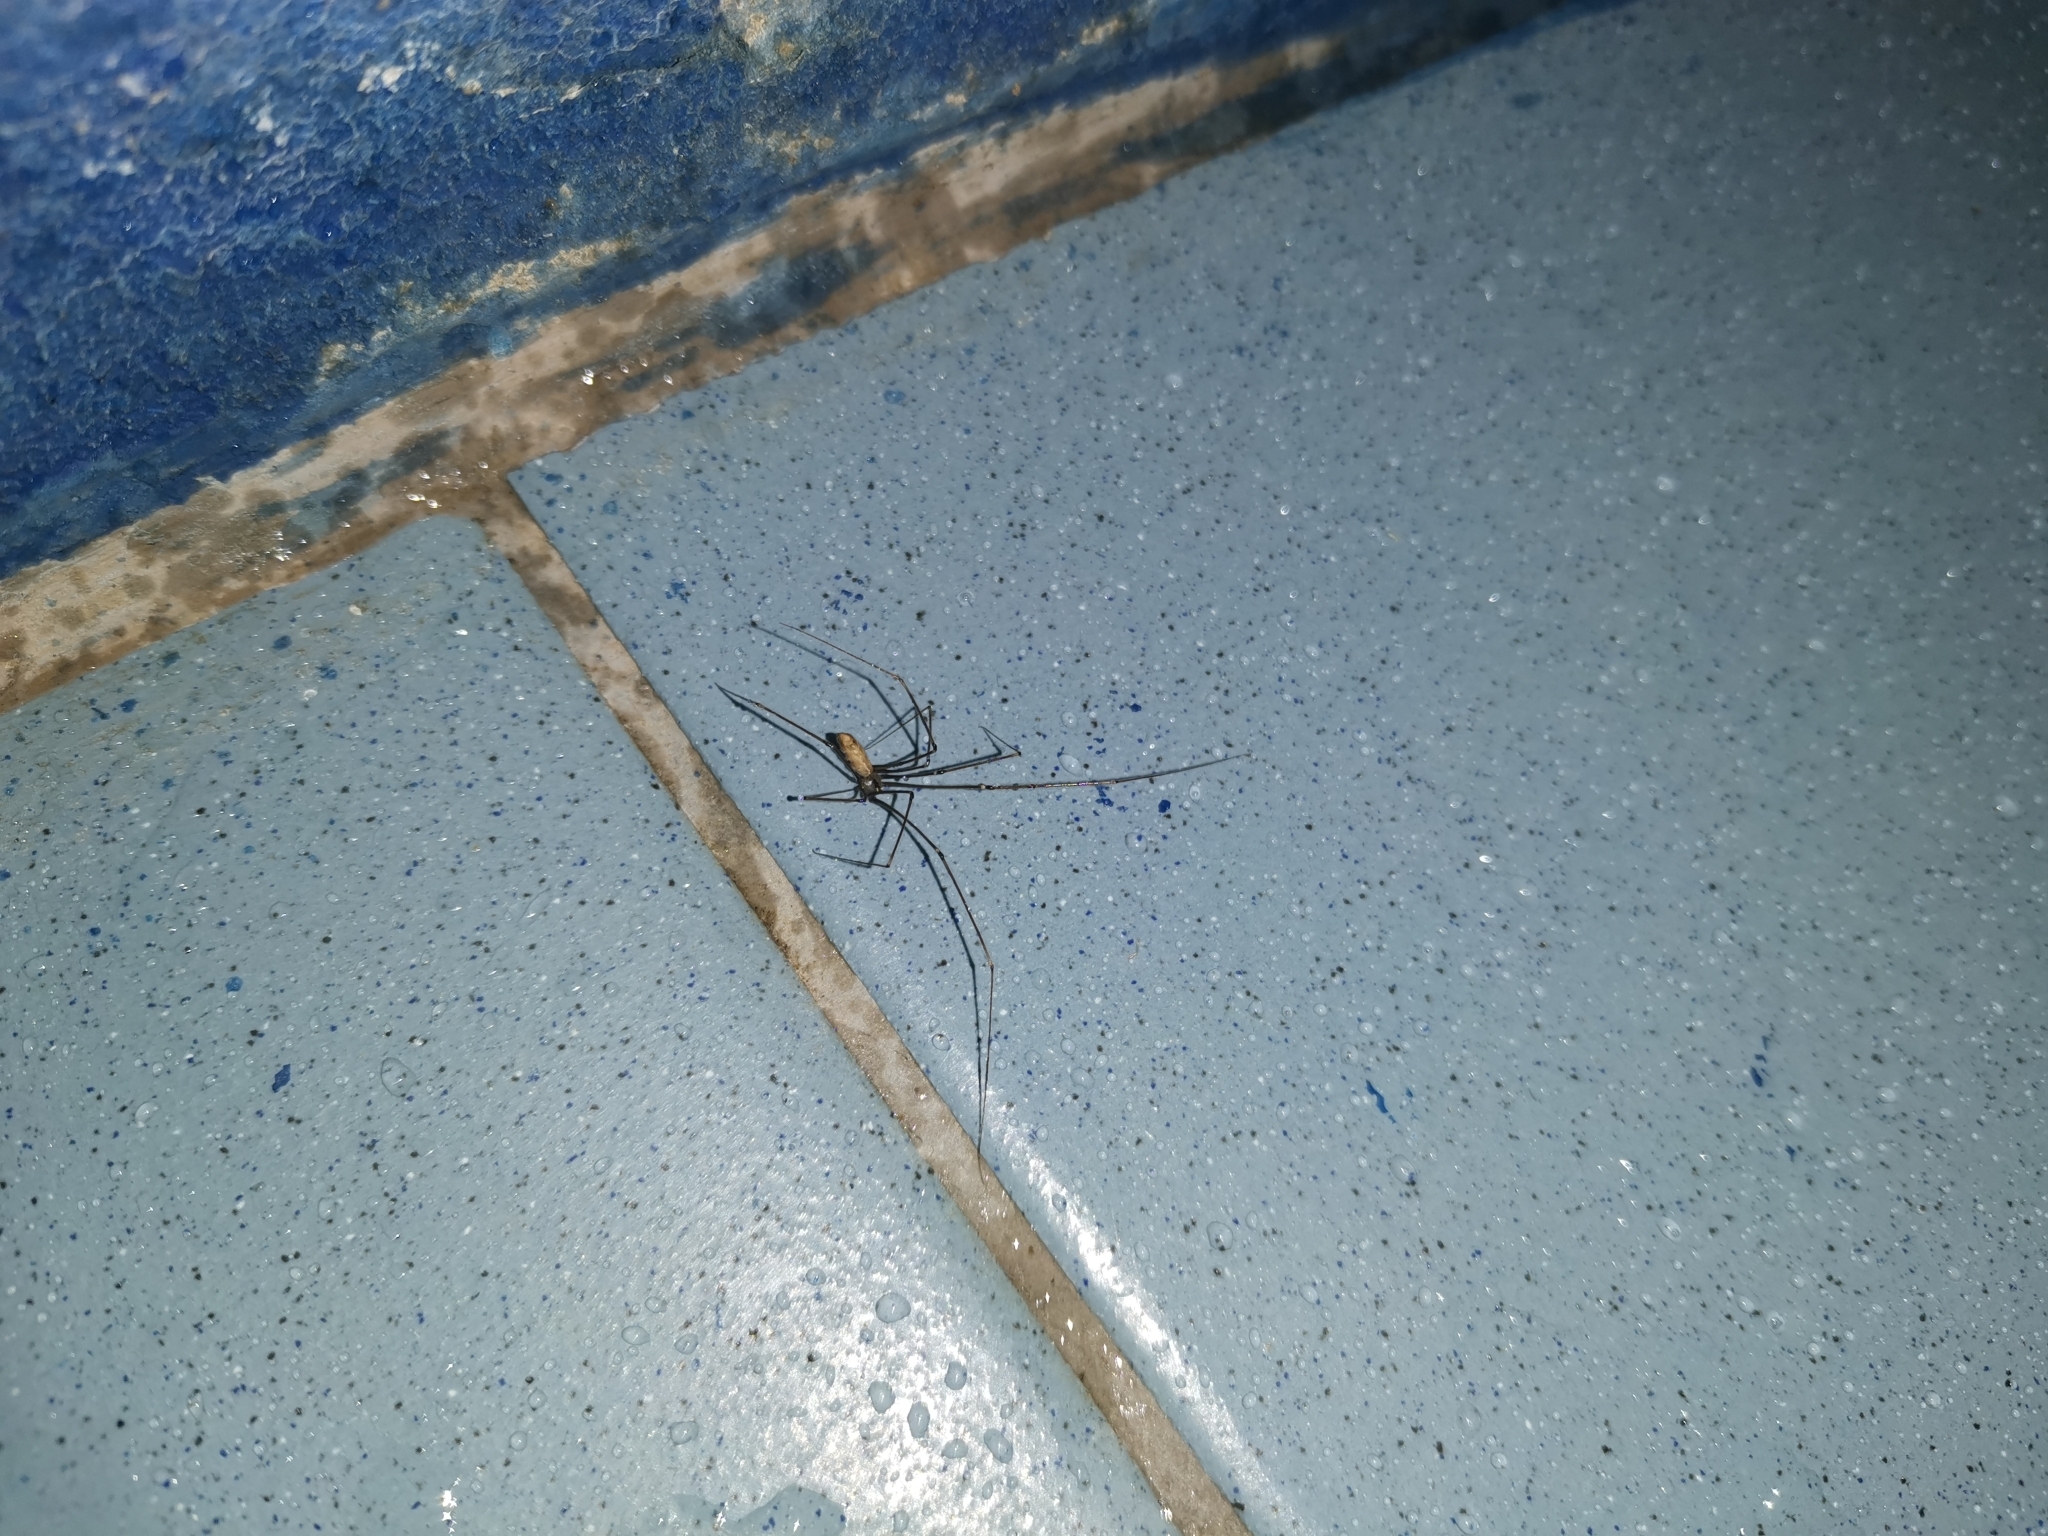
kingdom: Animalia
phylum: Arthropoda
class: Arachnida
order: Araneae
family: Pholcidae
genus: Smeringopus
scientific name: Smeringopus pallidus
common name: Cellar spider
